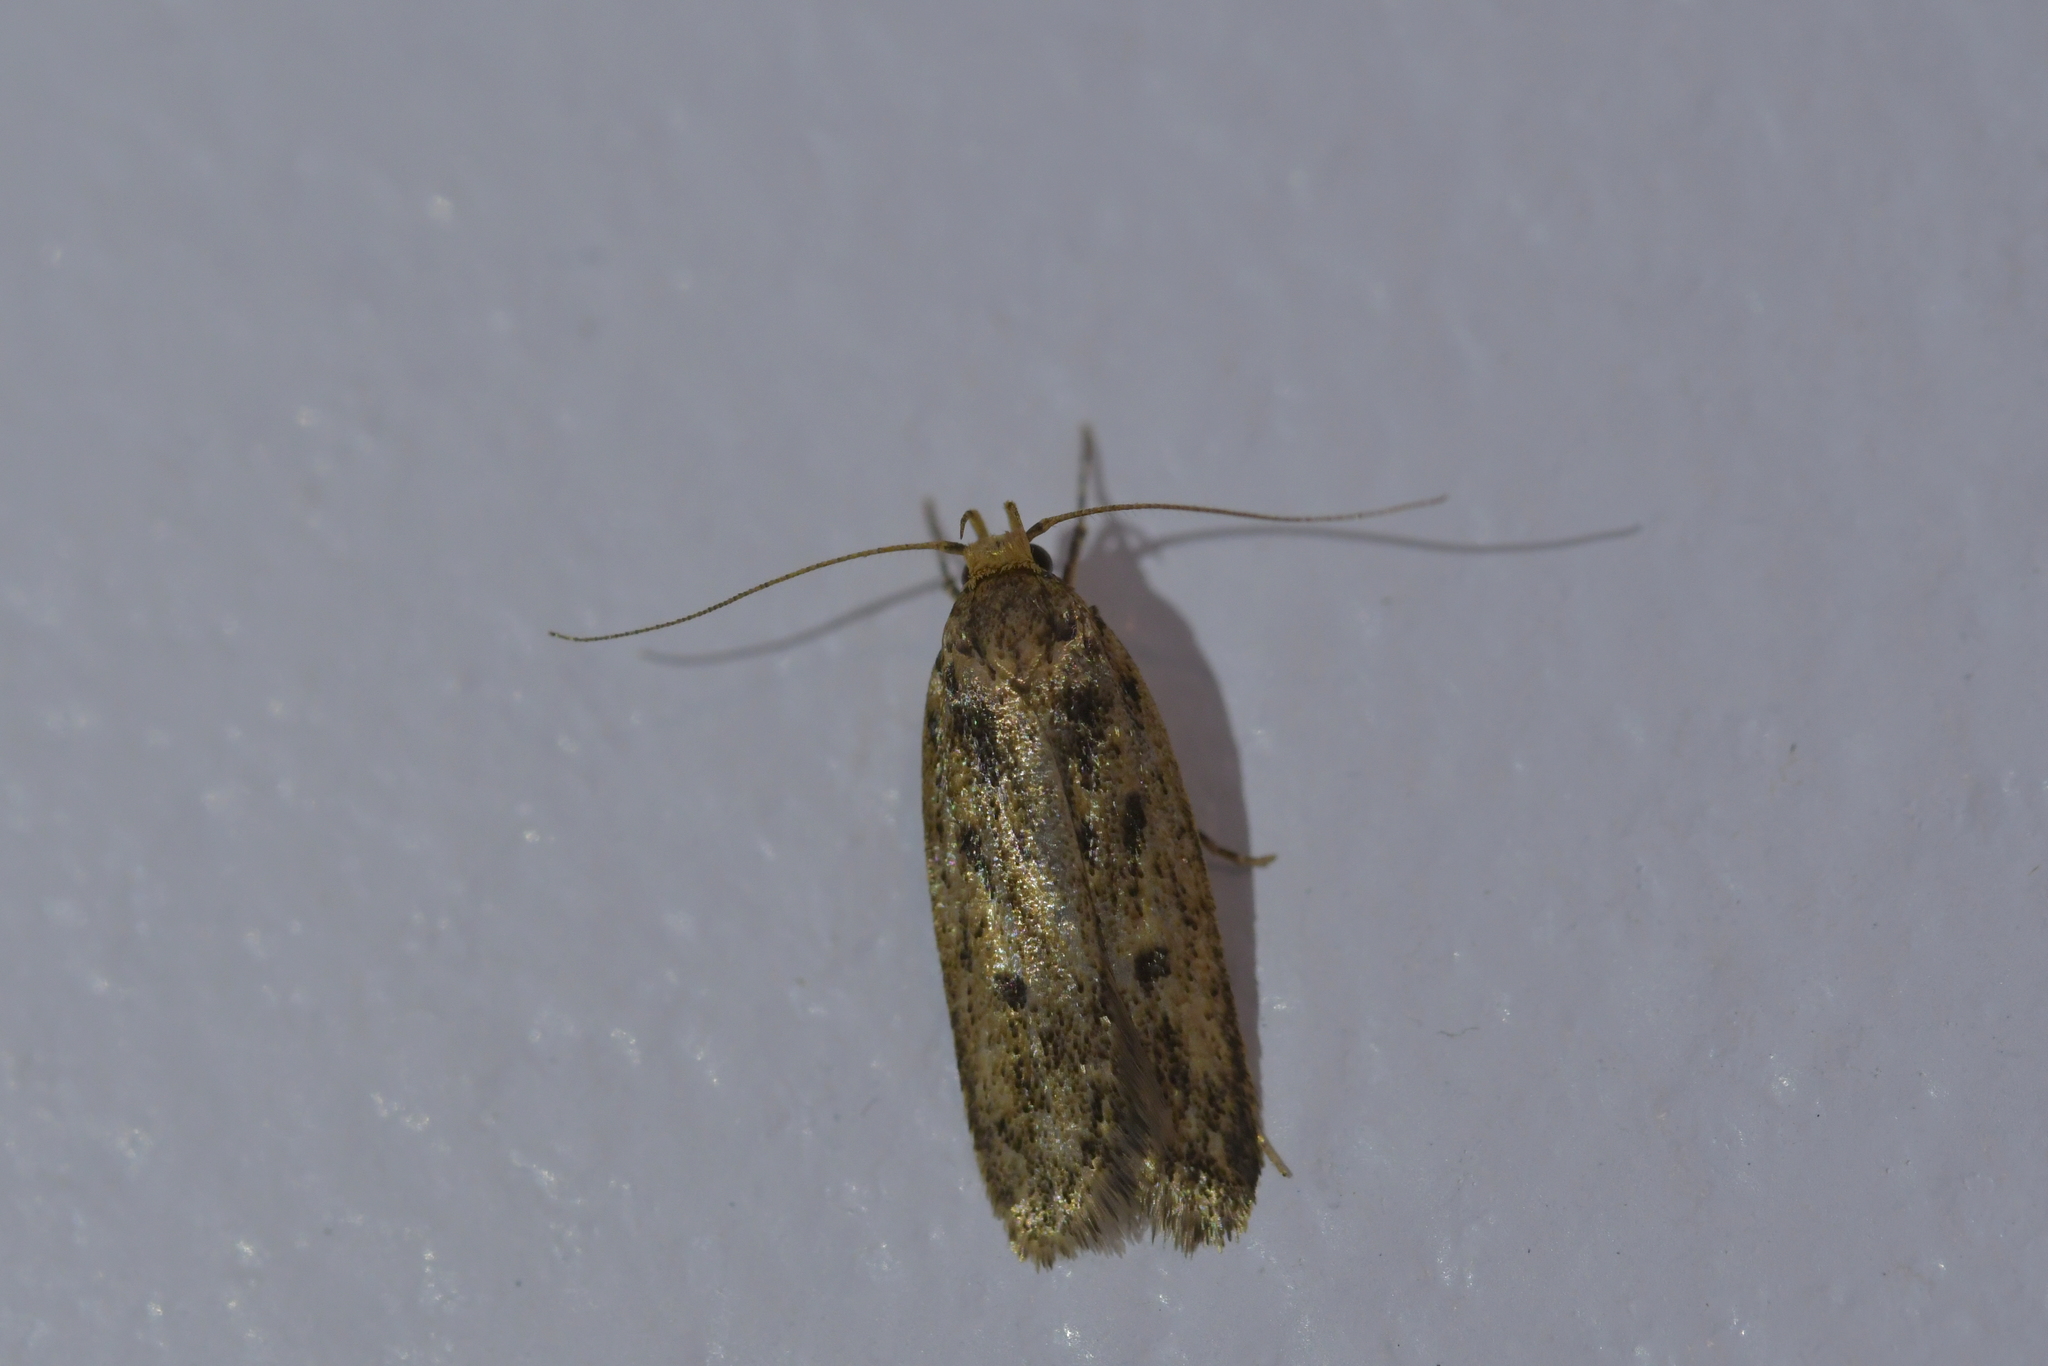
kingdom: Animalia
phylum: Arthropoda
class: Insecta
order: Lepidoptera
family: Oecophoridae
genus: Hofmannophila
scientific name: Hofmannophila pseudospretella
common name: Brown house moth
